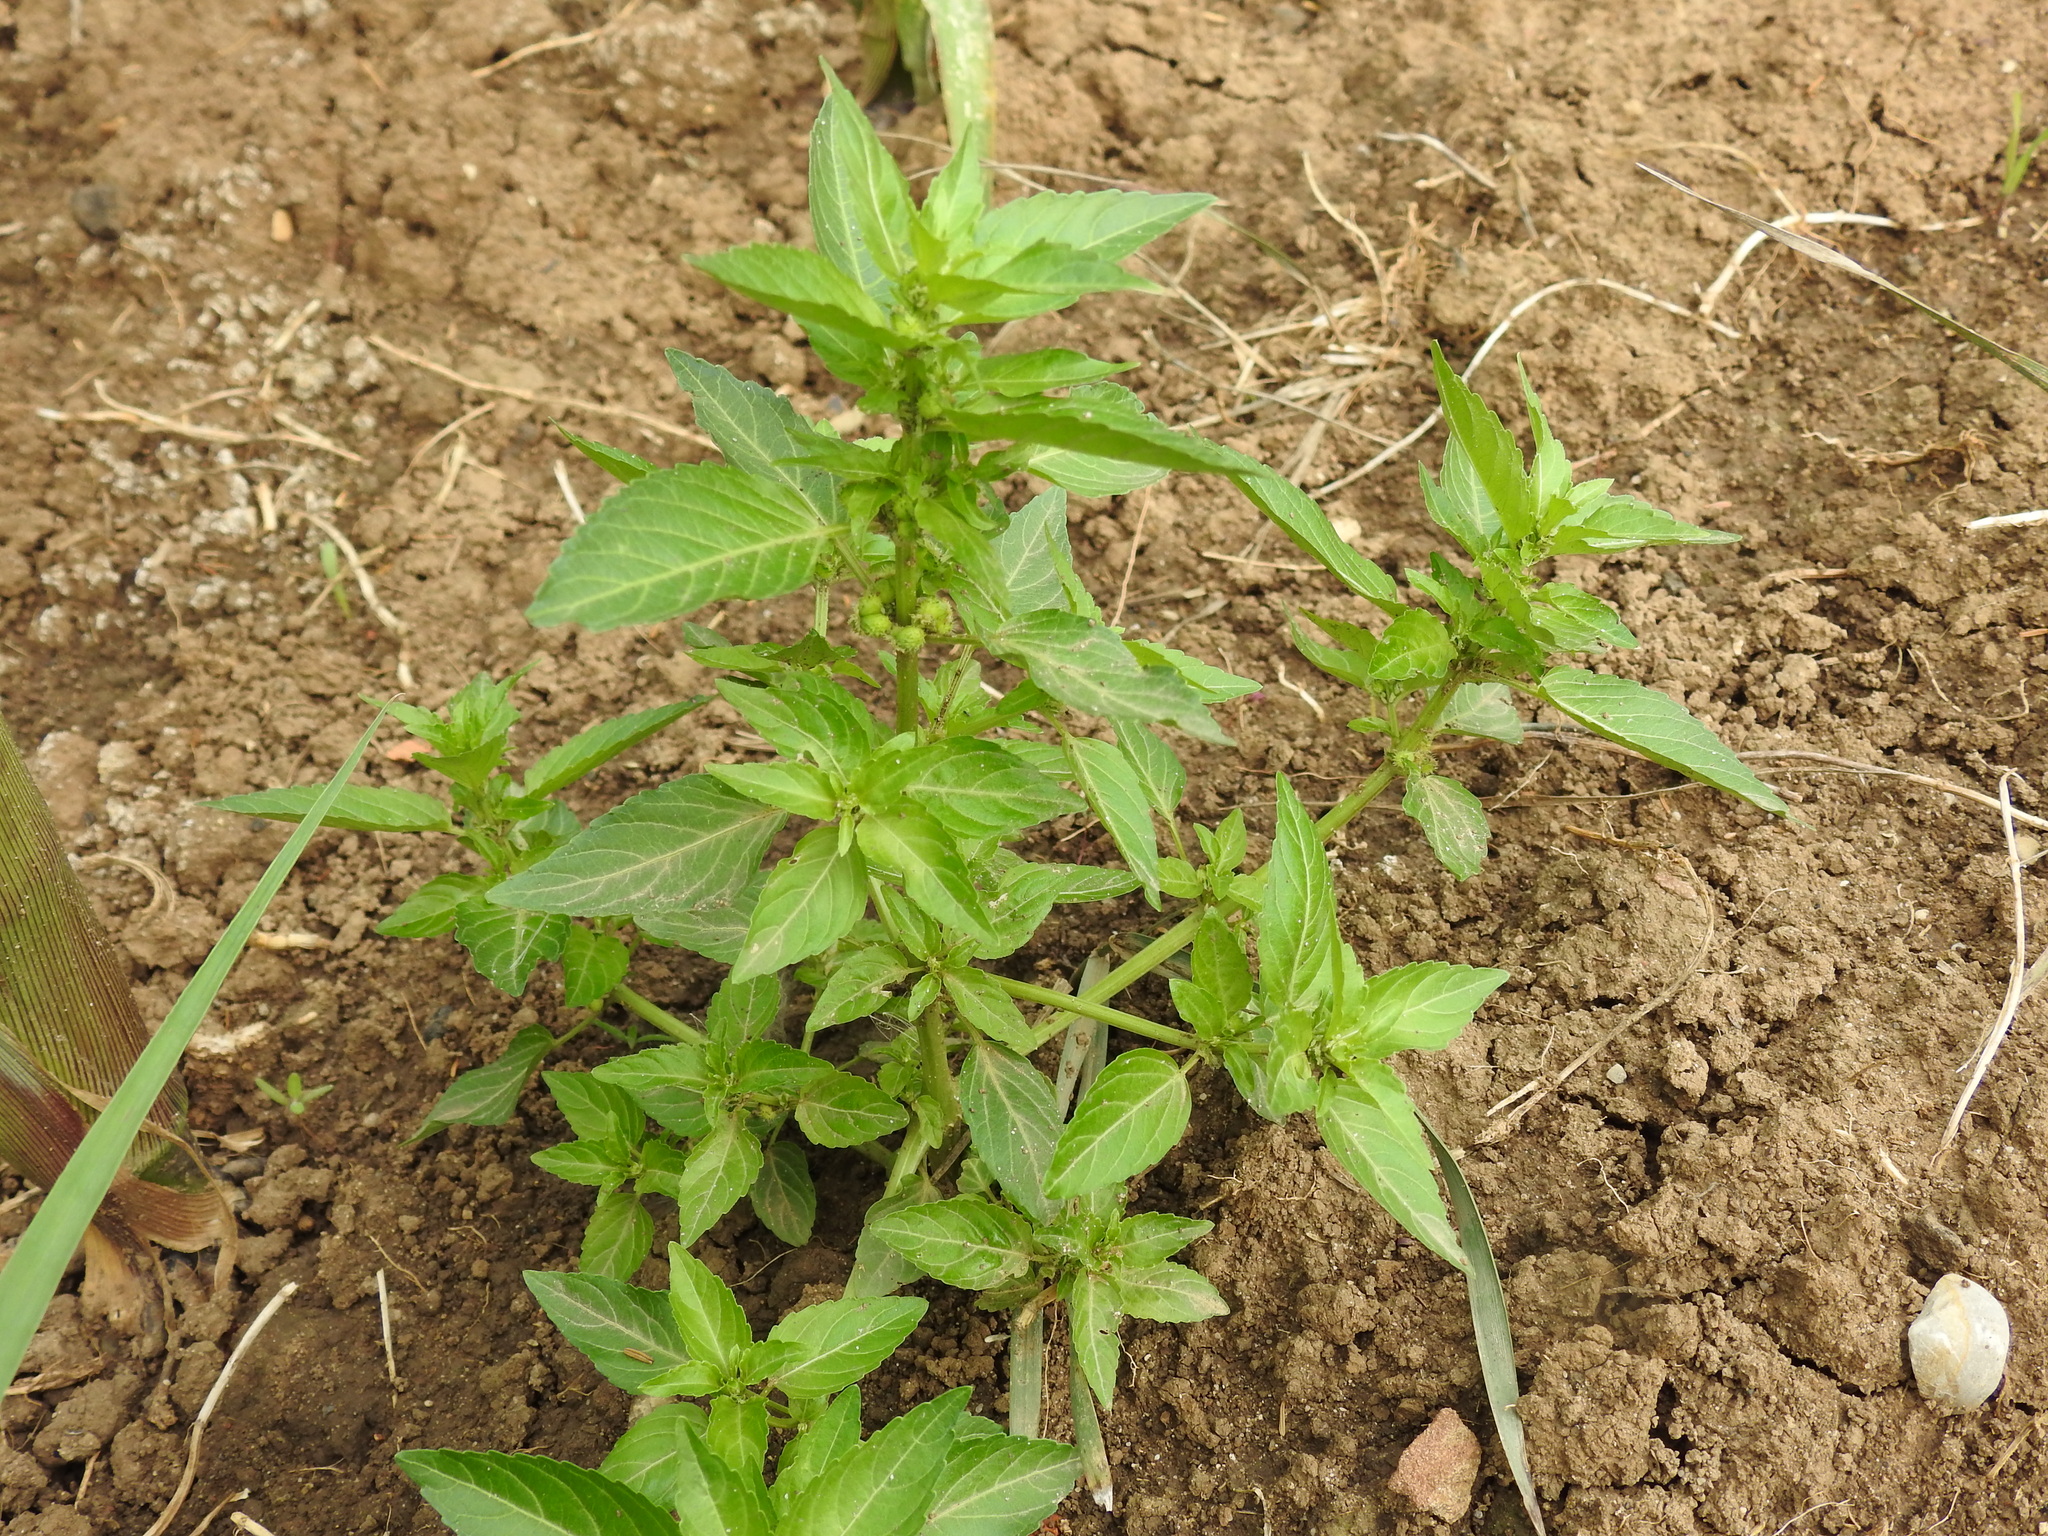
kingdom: Plantae
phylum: Tracheophyta
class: Magnoliopsida
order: Malpighiales
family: Euphorbiaceae
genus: Mercurialis
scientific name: Mercurialis annua
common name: Annual mercury
